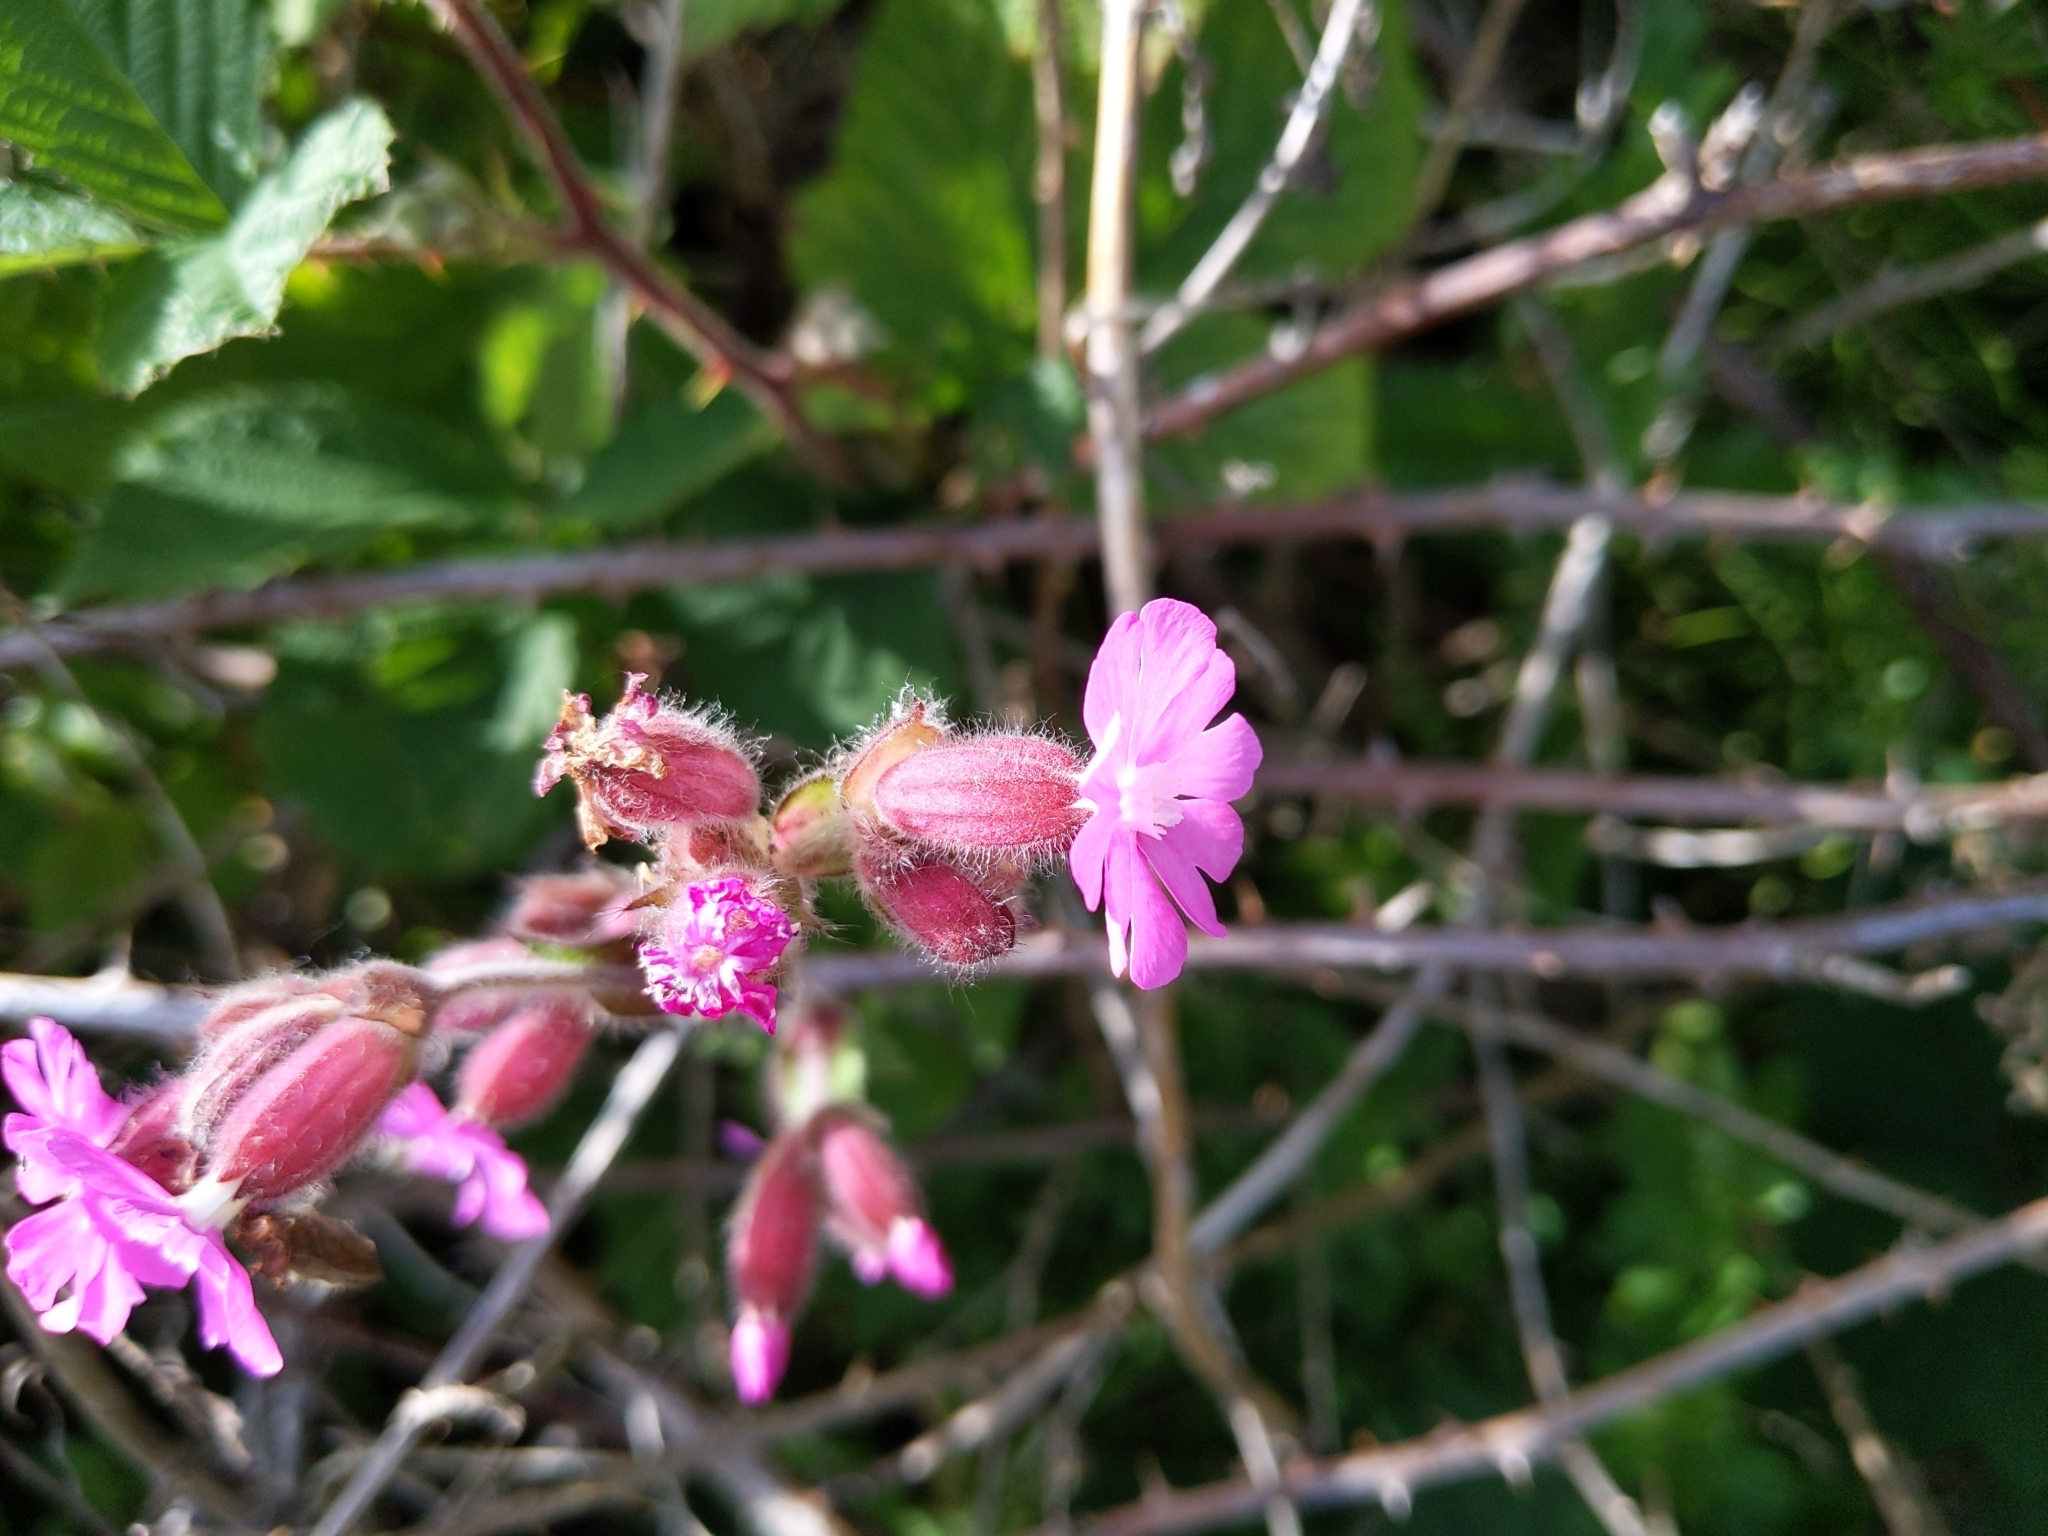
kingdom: Plantae
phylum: Tracheophyta
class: Magnoliopsida
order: Caryophyllales
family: Caryophyllaceae
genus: Silene
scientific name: Silene dioica
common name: Red campion
